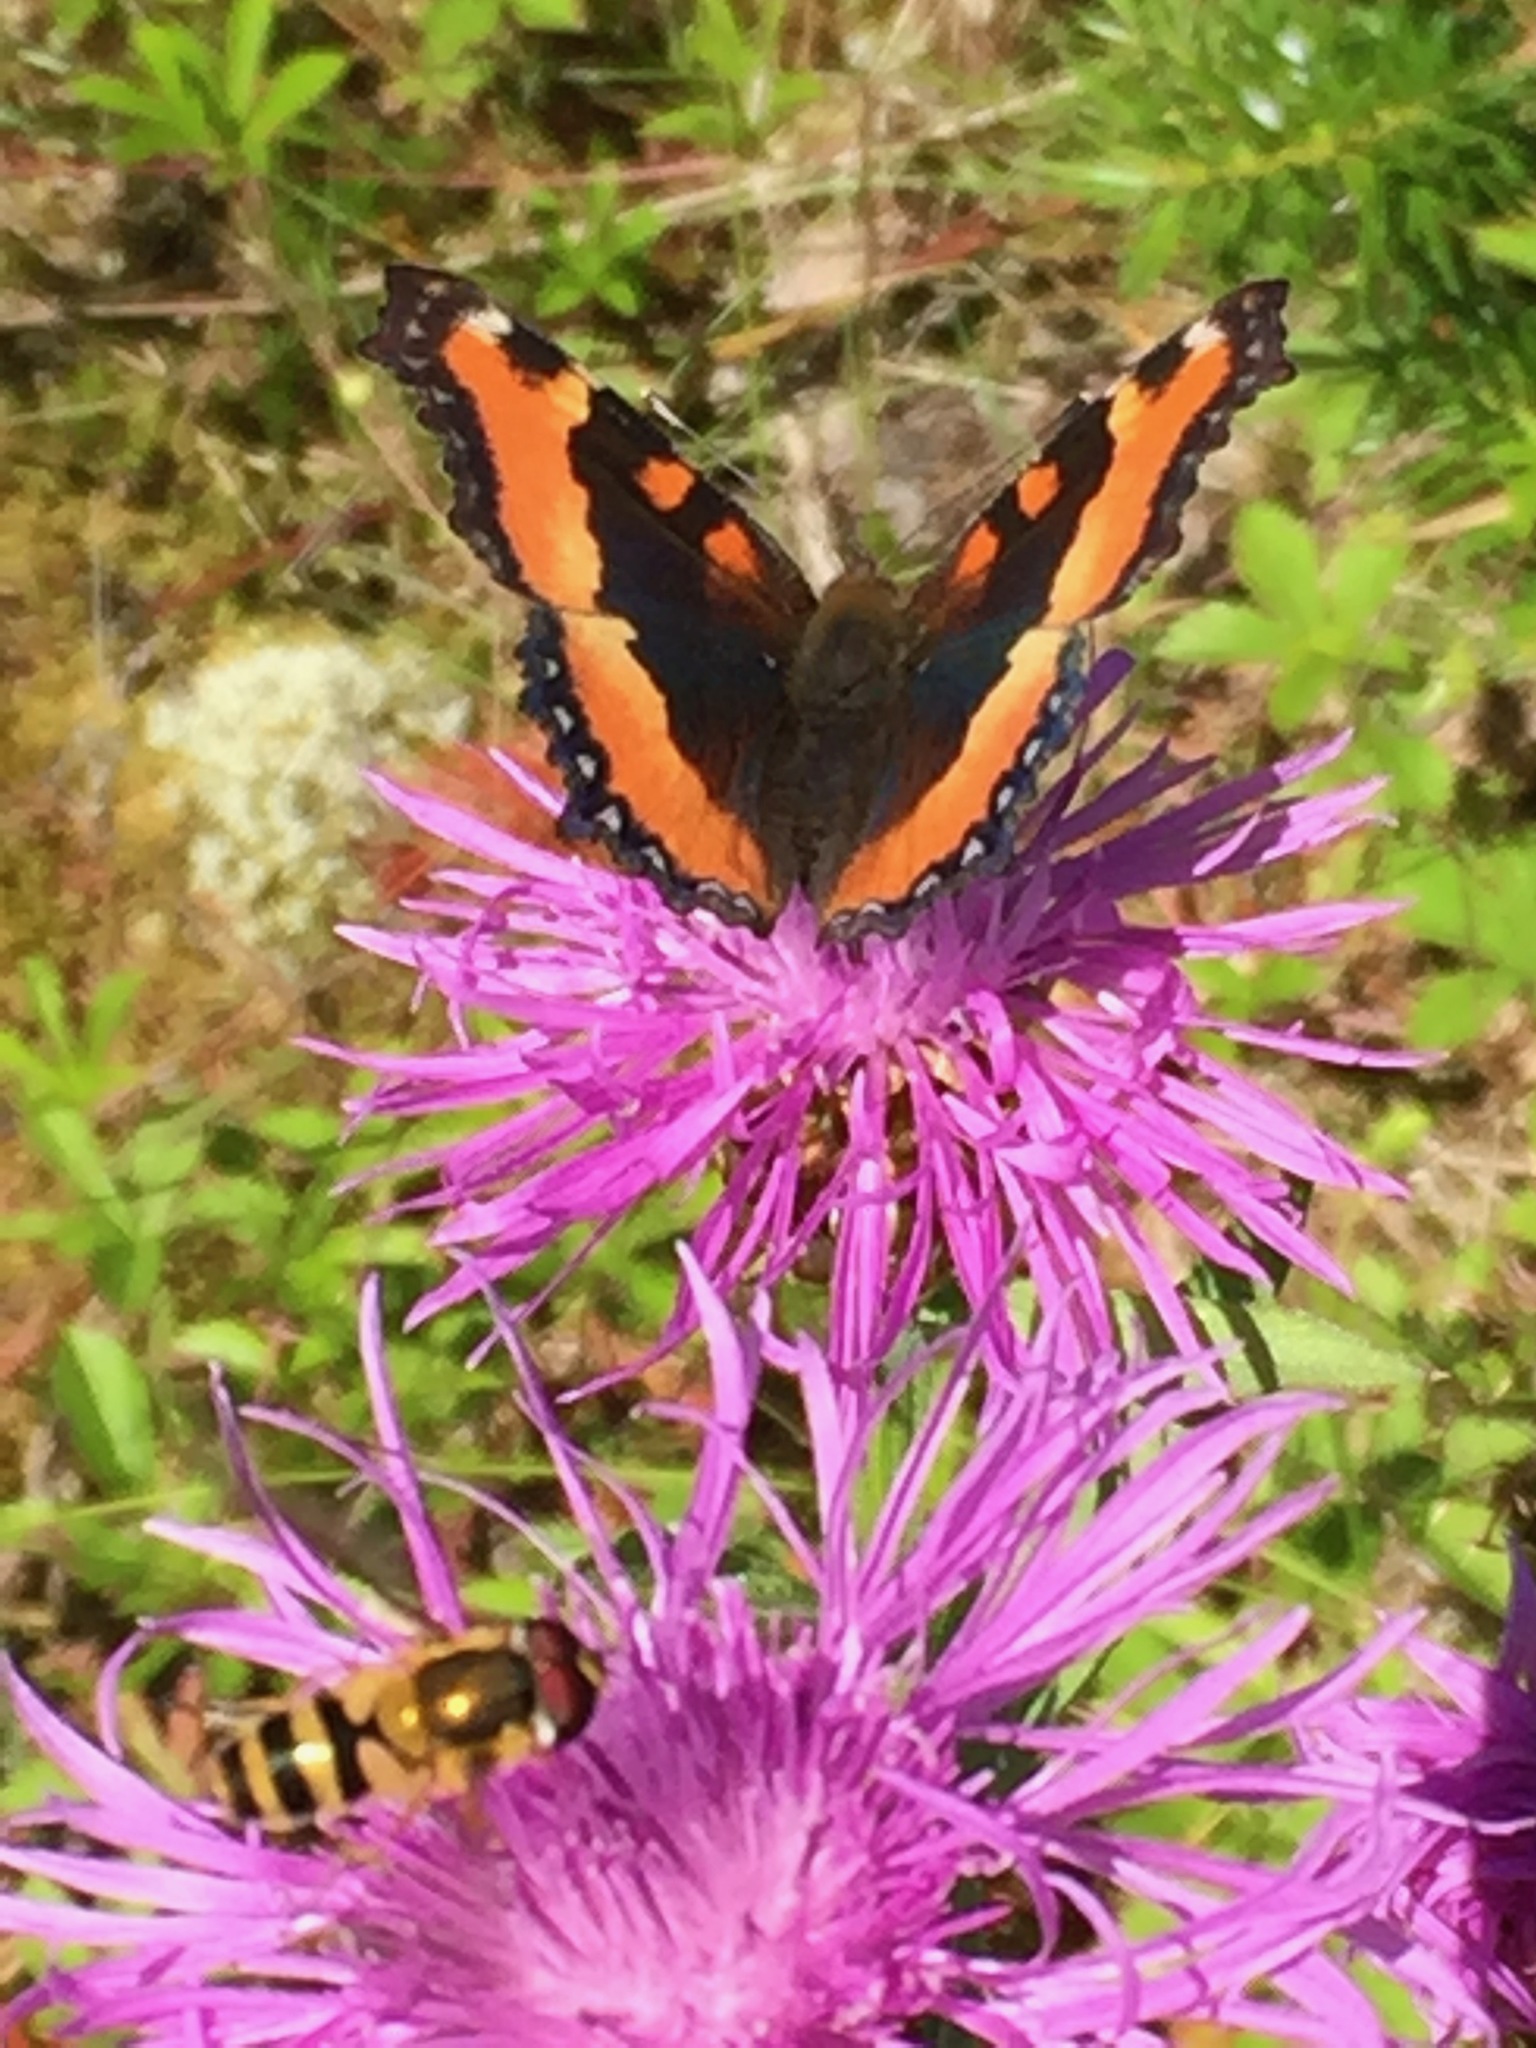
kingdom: Animalia
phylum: Arthropoda
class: Insecta
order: Diptera
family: Syrphidae
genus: Epistrophe
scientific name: Epistrophe grossulariae
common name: Black-horned smoothtail
